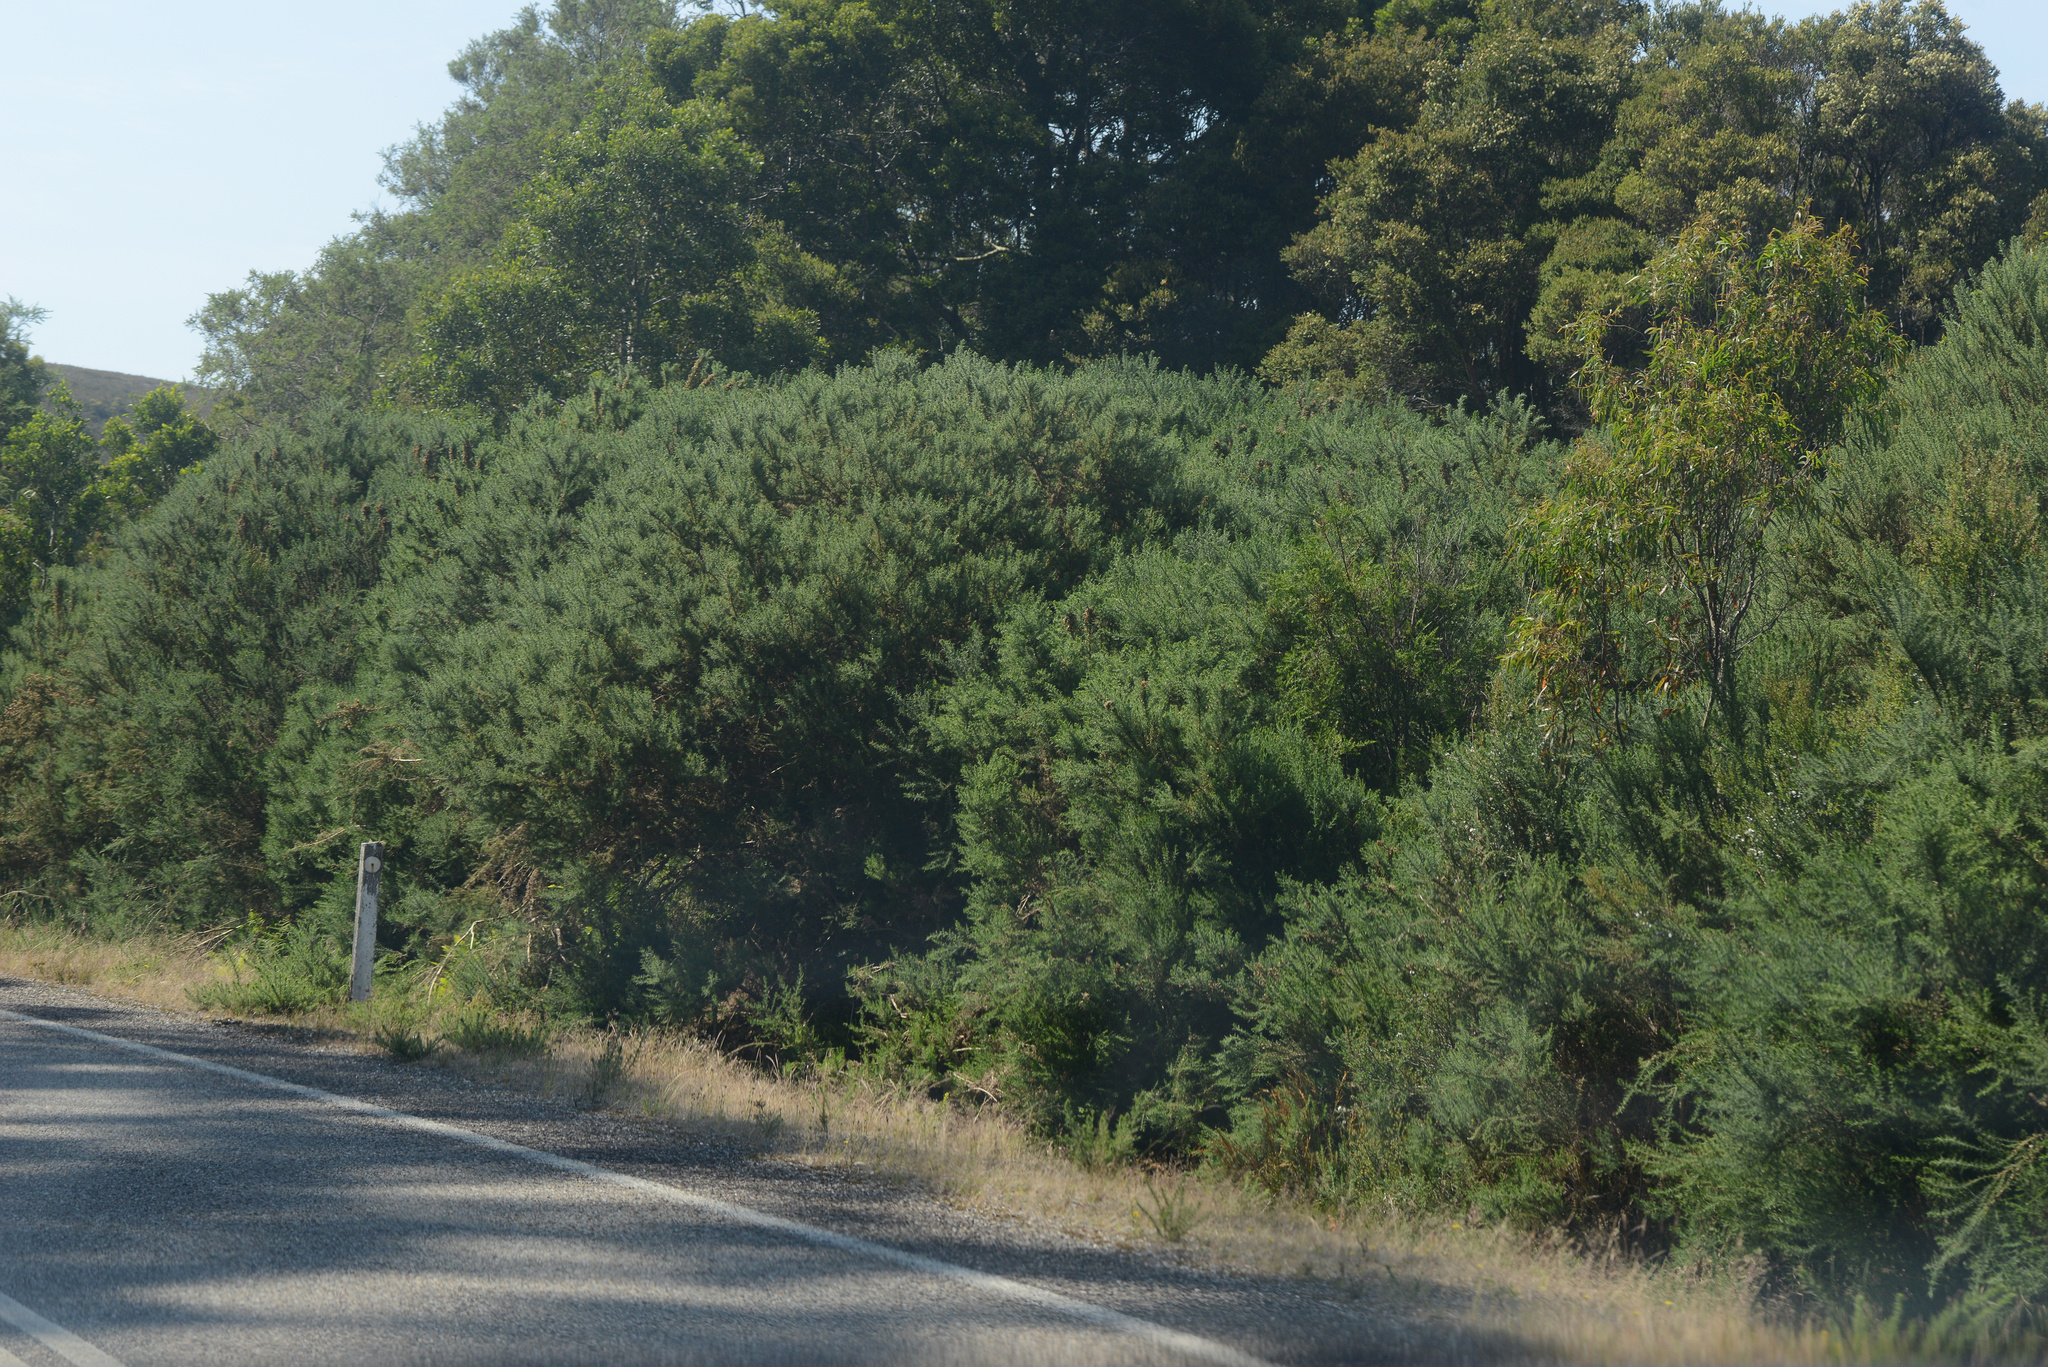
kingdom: Plantae
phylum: Tracheophyta
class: Magnoliopsida
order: Fabales
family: Fabaceae
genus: Ulex
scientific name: Ulex europaeus
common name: Common gorse
